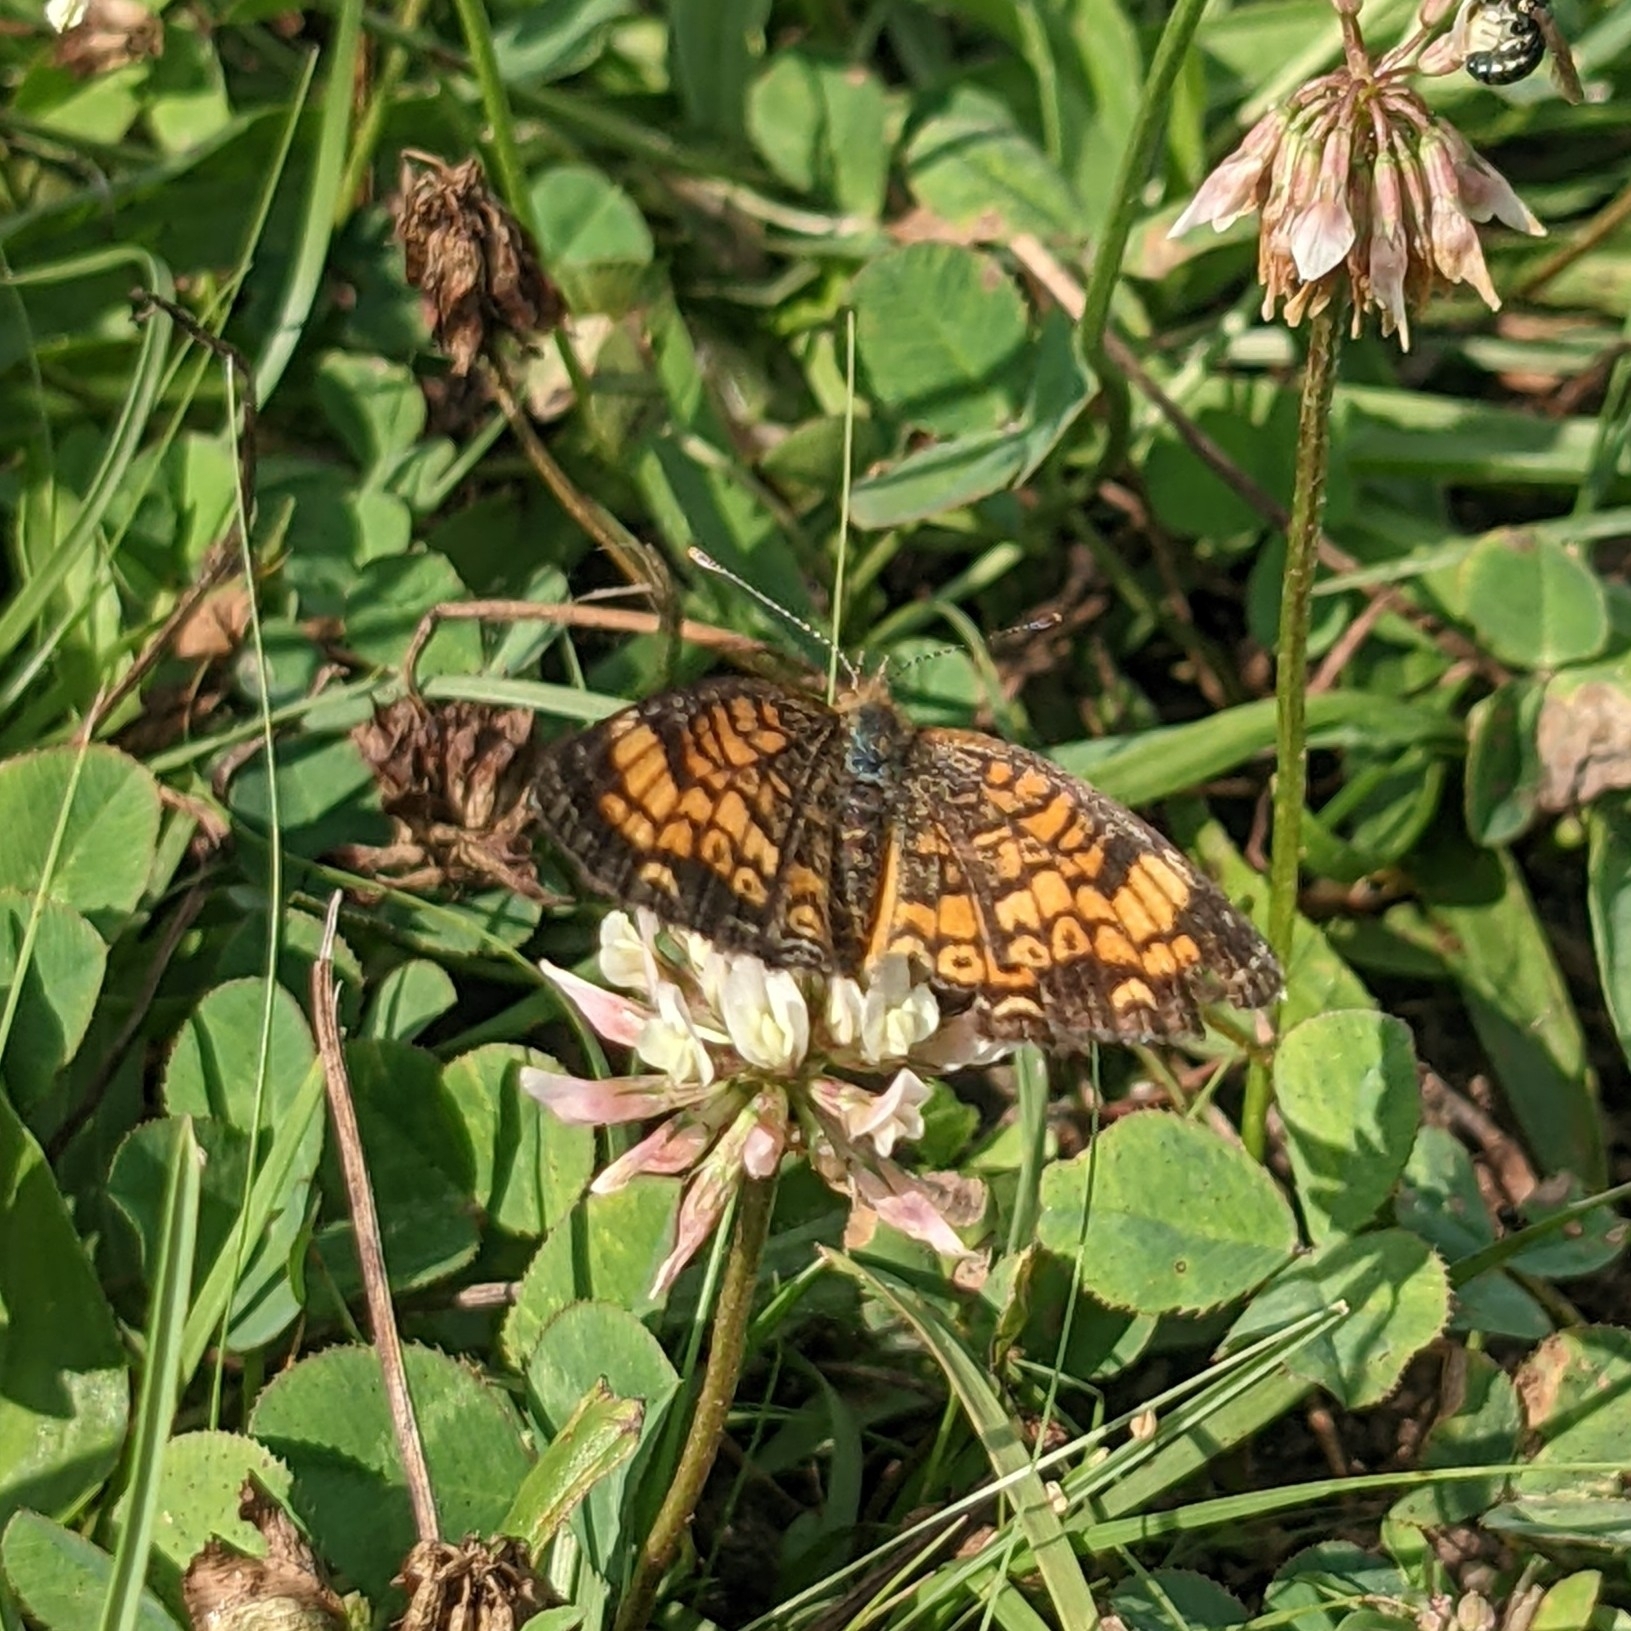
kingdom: Animalia
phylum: Arthropoda
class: Insecta
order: Lepidoptera
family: Nymphalidae
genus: Phyciodes
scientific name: Phyciodes tharos
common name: Pearl crescent
